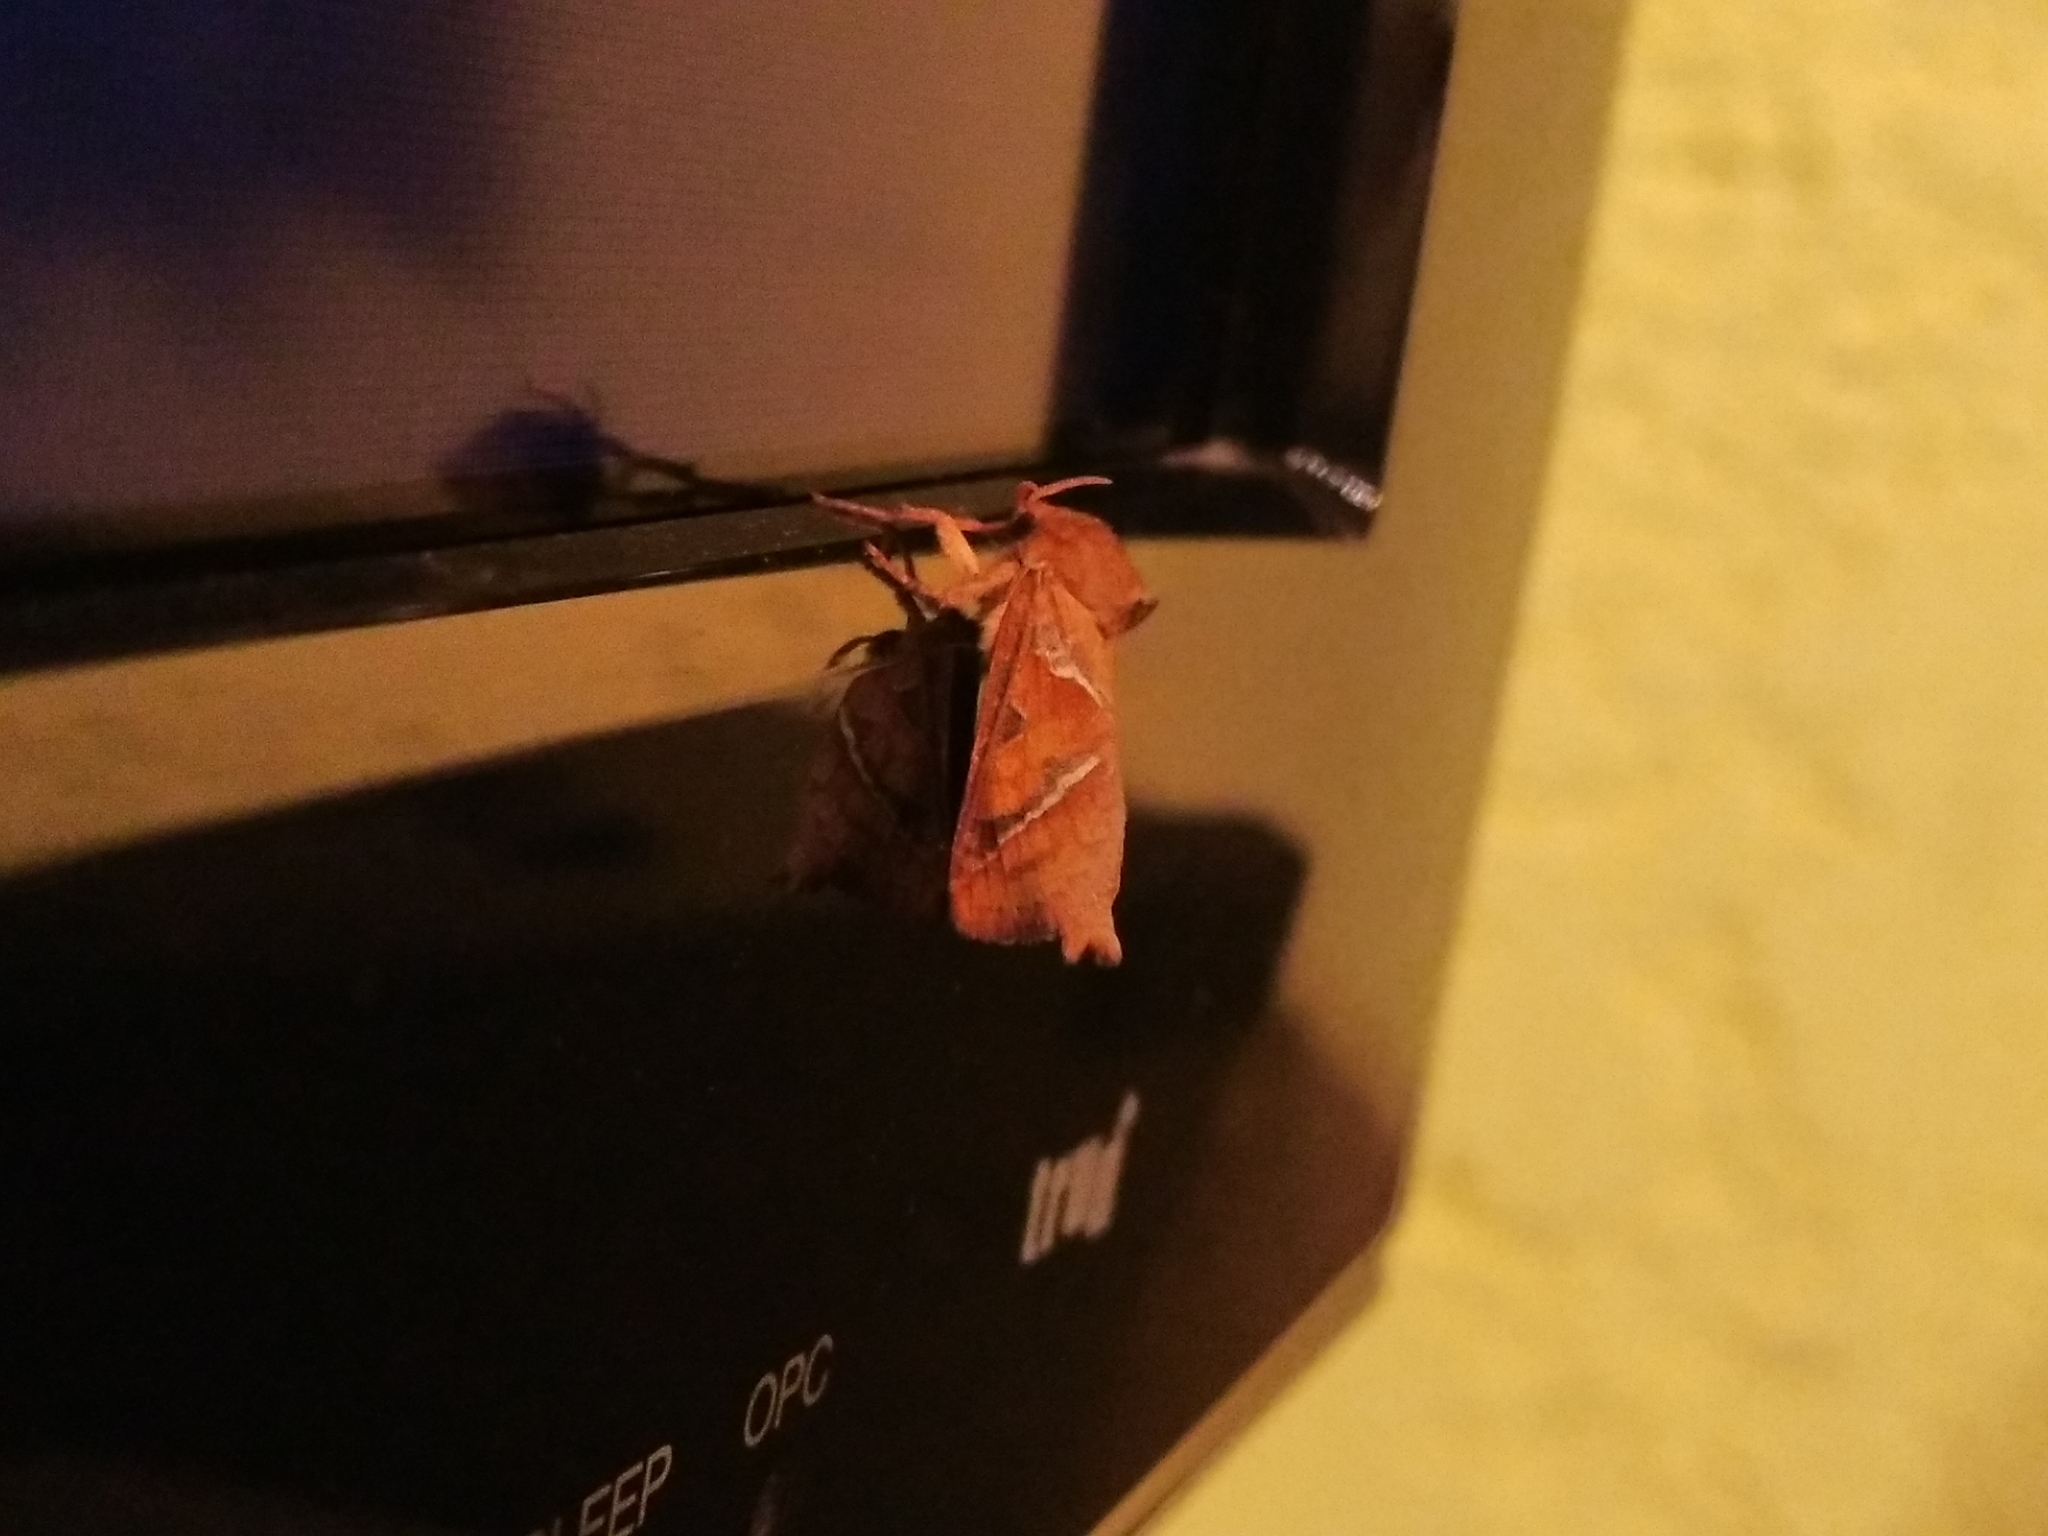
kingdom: Animalia
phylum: Arthropoda
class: Insecta
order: Lepidoptera
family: Hepialidae
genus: Triodia
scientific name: Triodia sylvina
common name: Orange swift
